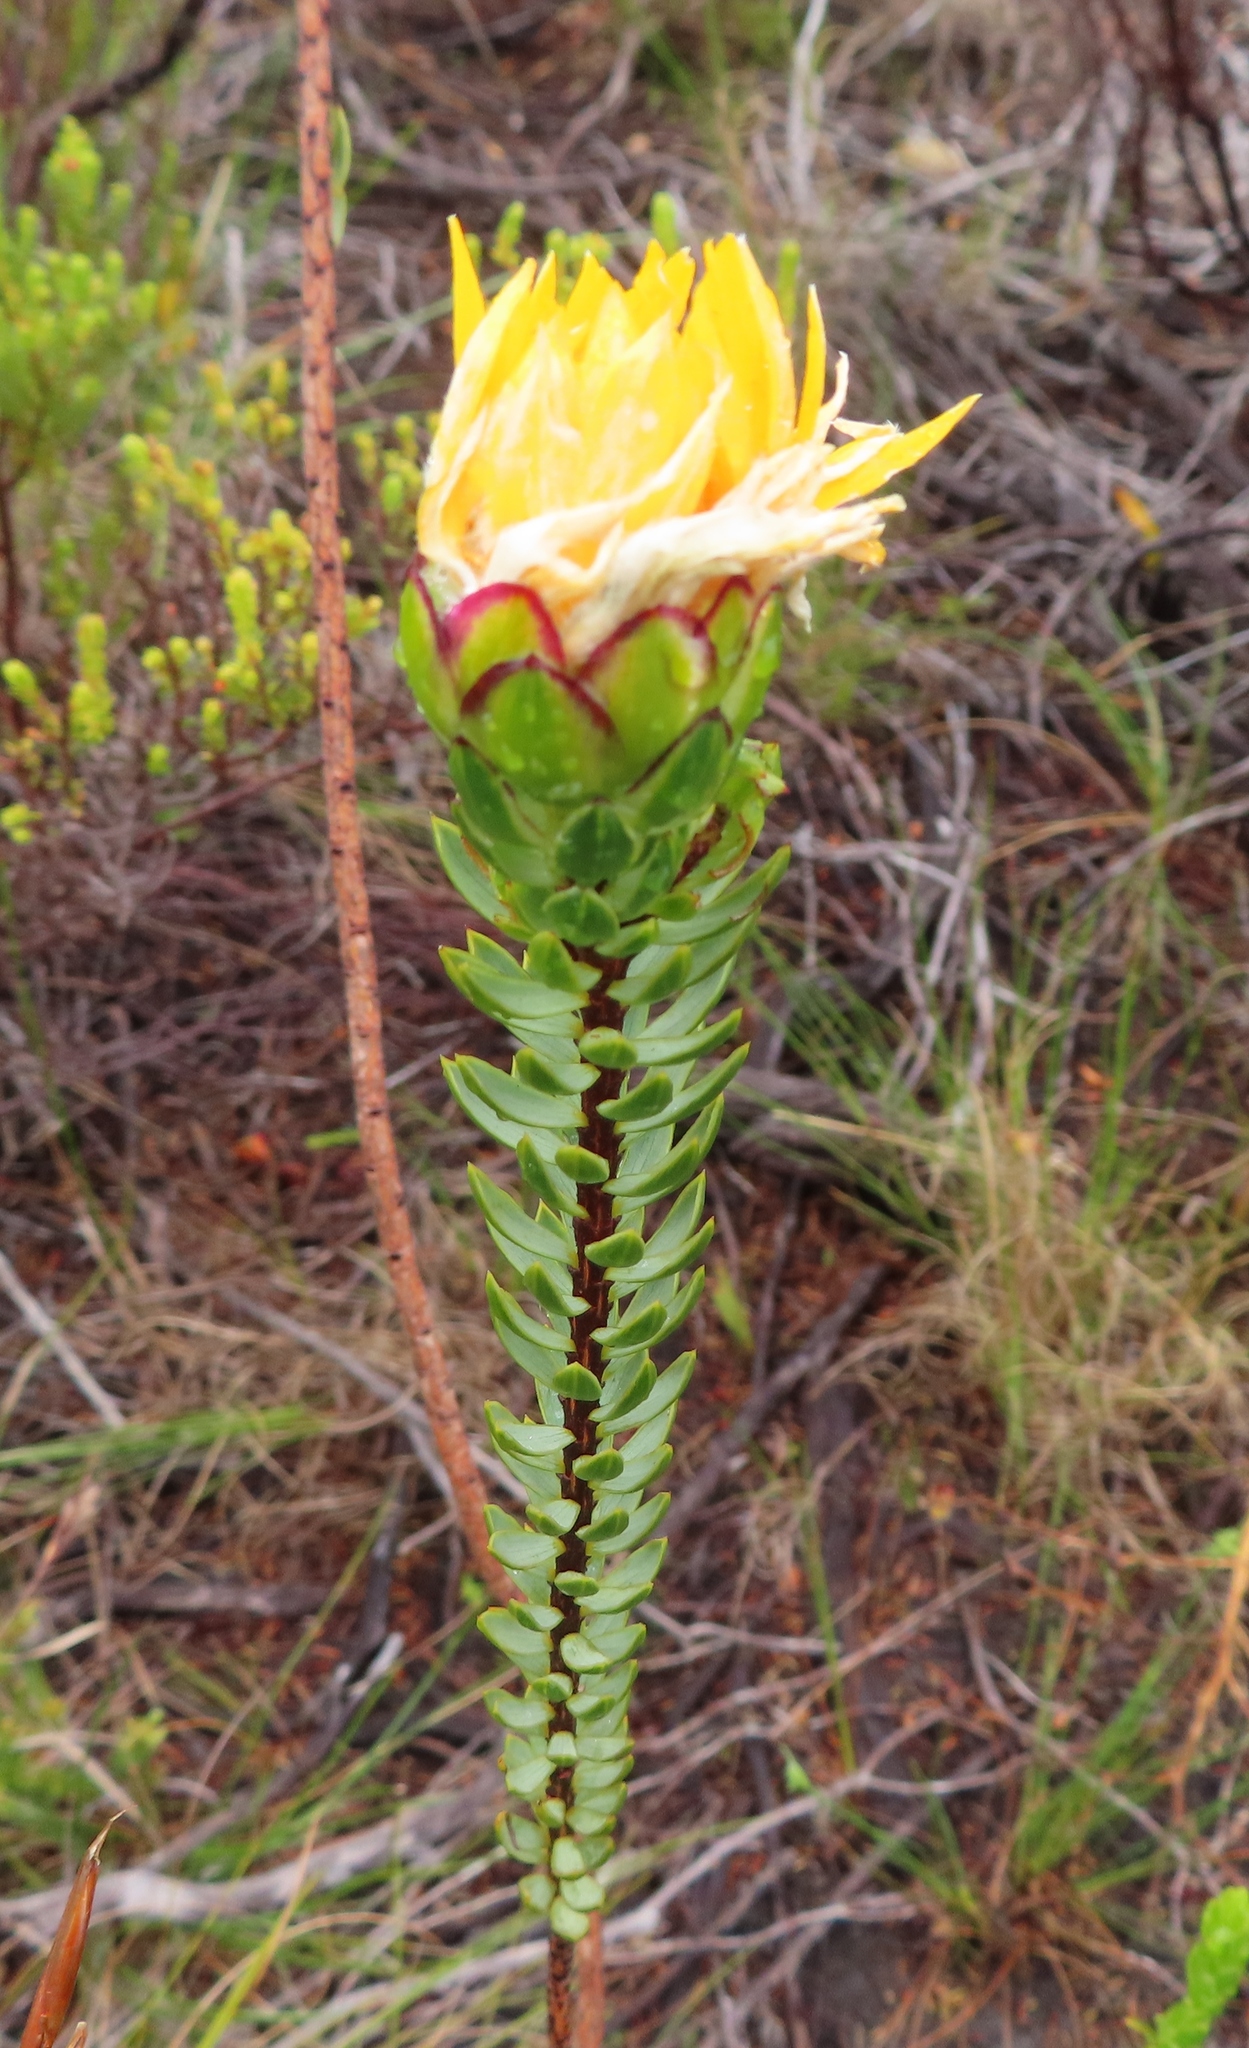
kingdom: Plantae
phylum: Tracheophyta
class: Magnoliopsida
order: Malvales
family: Thymelaeaceae
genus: Lachnaea
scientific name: Lachnaea aurea
